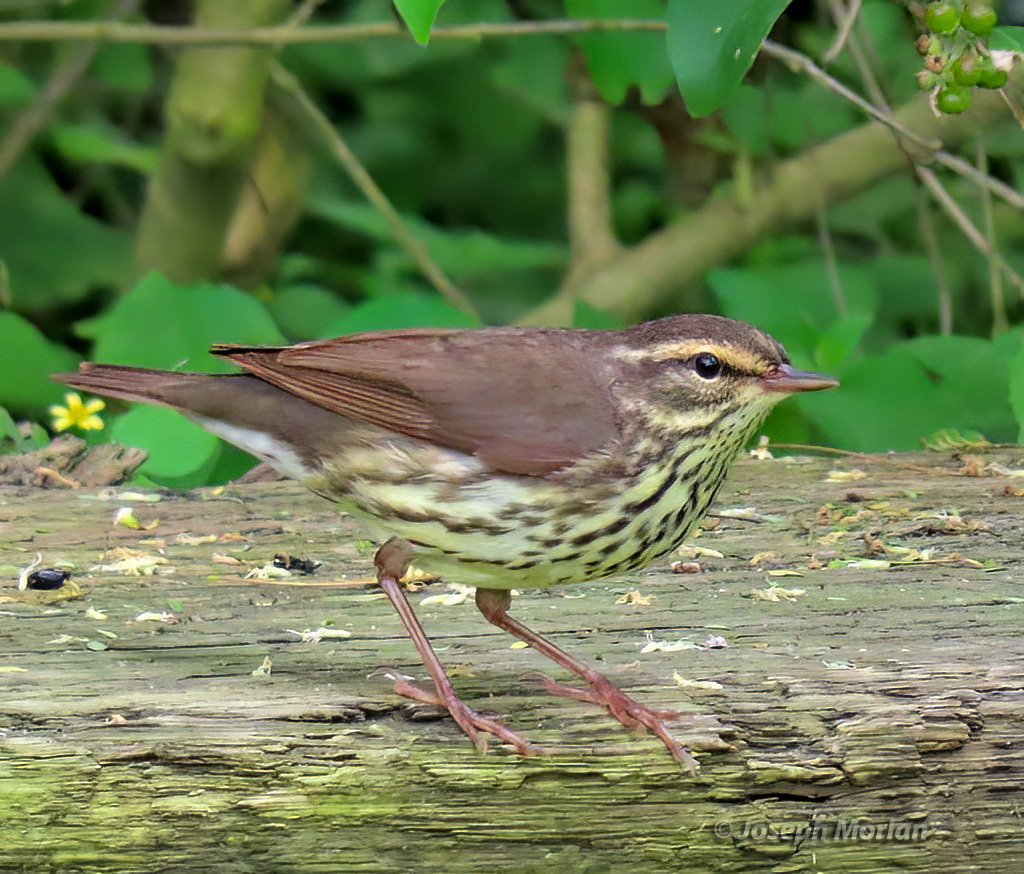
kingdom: Animalia
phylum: Chordata
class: Aves
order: Passeriformes
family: Parulidae
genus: Parkesia
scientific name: Parkesia noveboracensis
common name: Northern waterthrush
